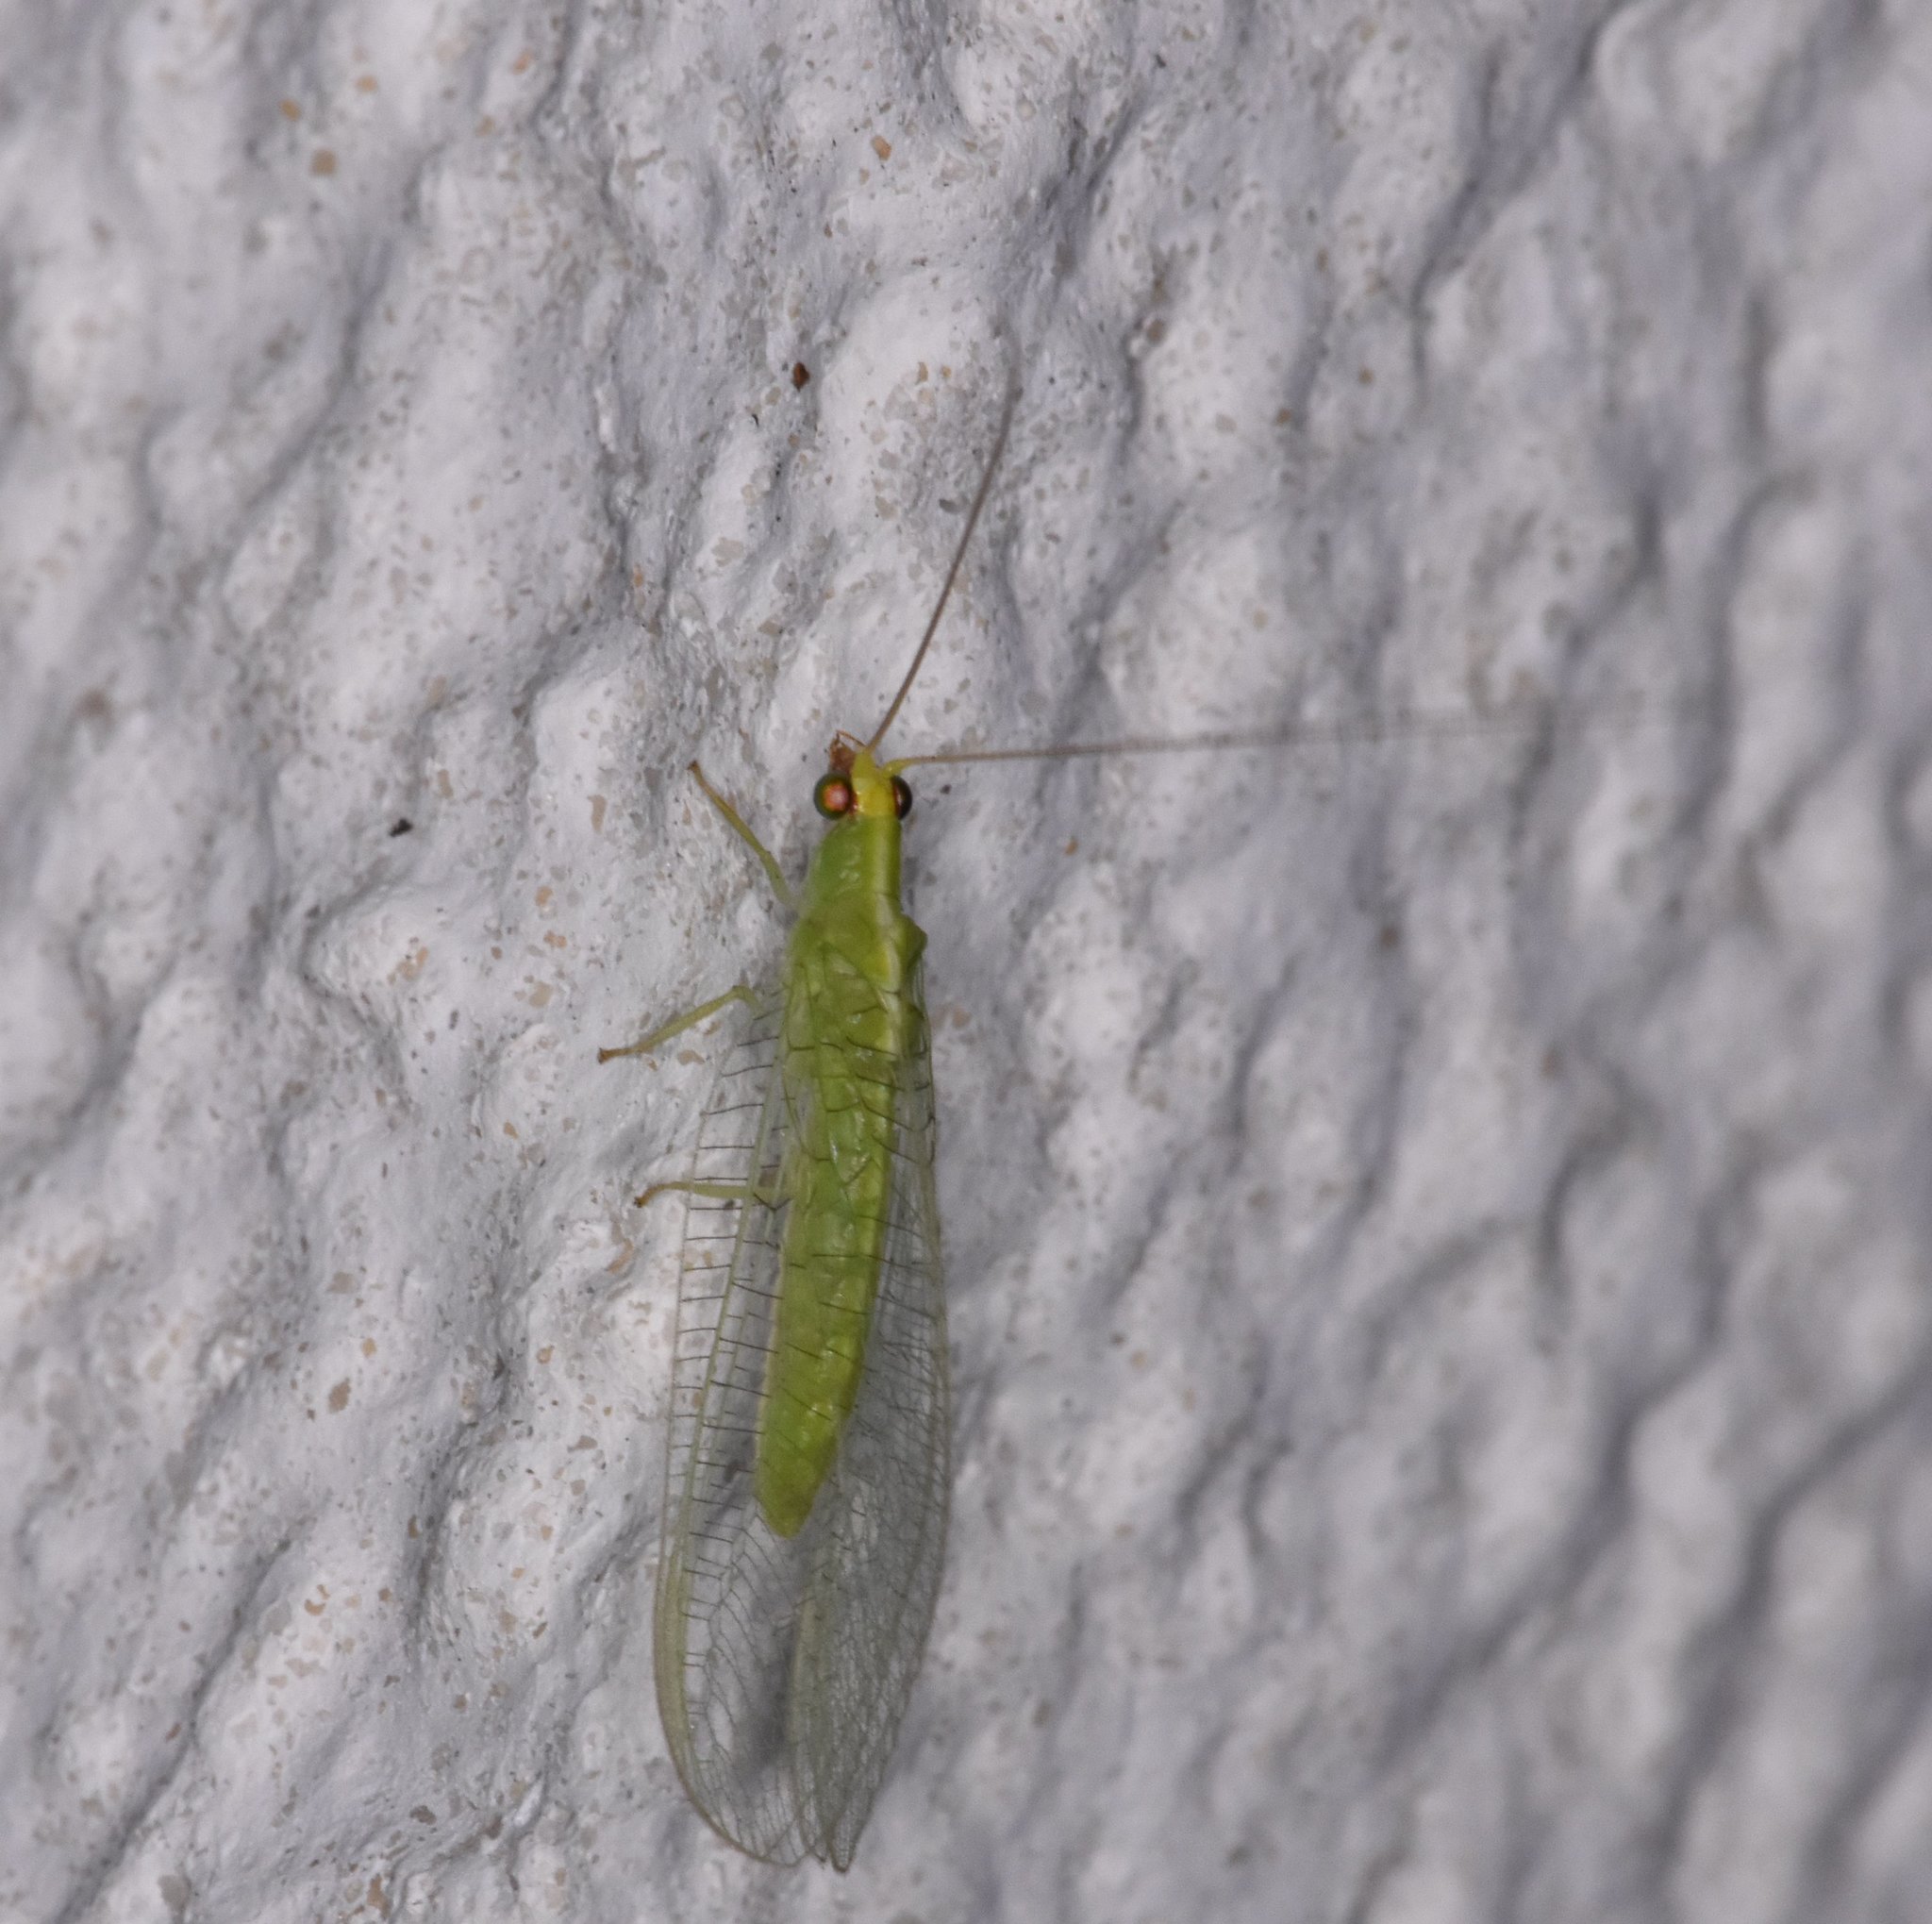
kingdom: Animalia
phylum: Arthropoda
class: Insecta
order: Neuroptera
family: Chrysopidae
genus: Chrysopodes
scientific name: Chrysopodes collaris
